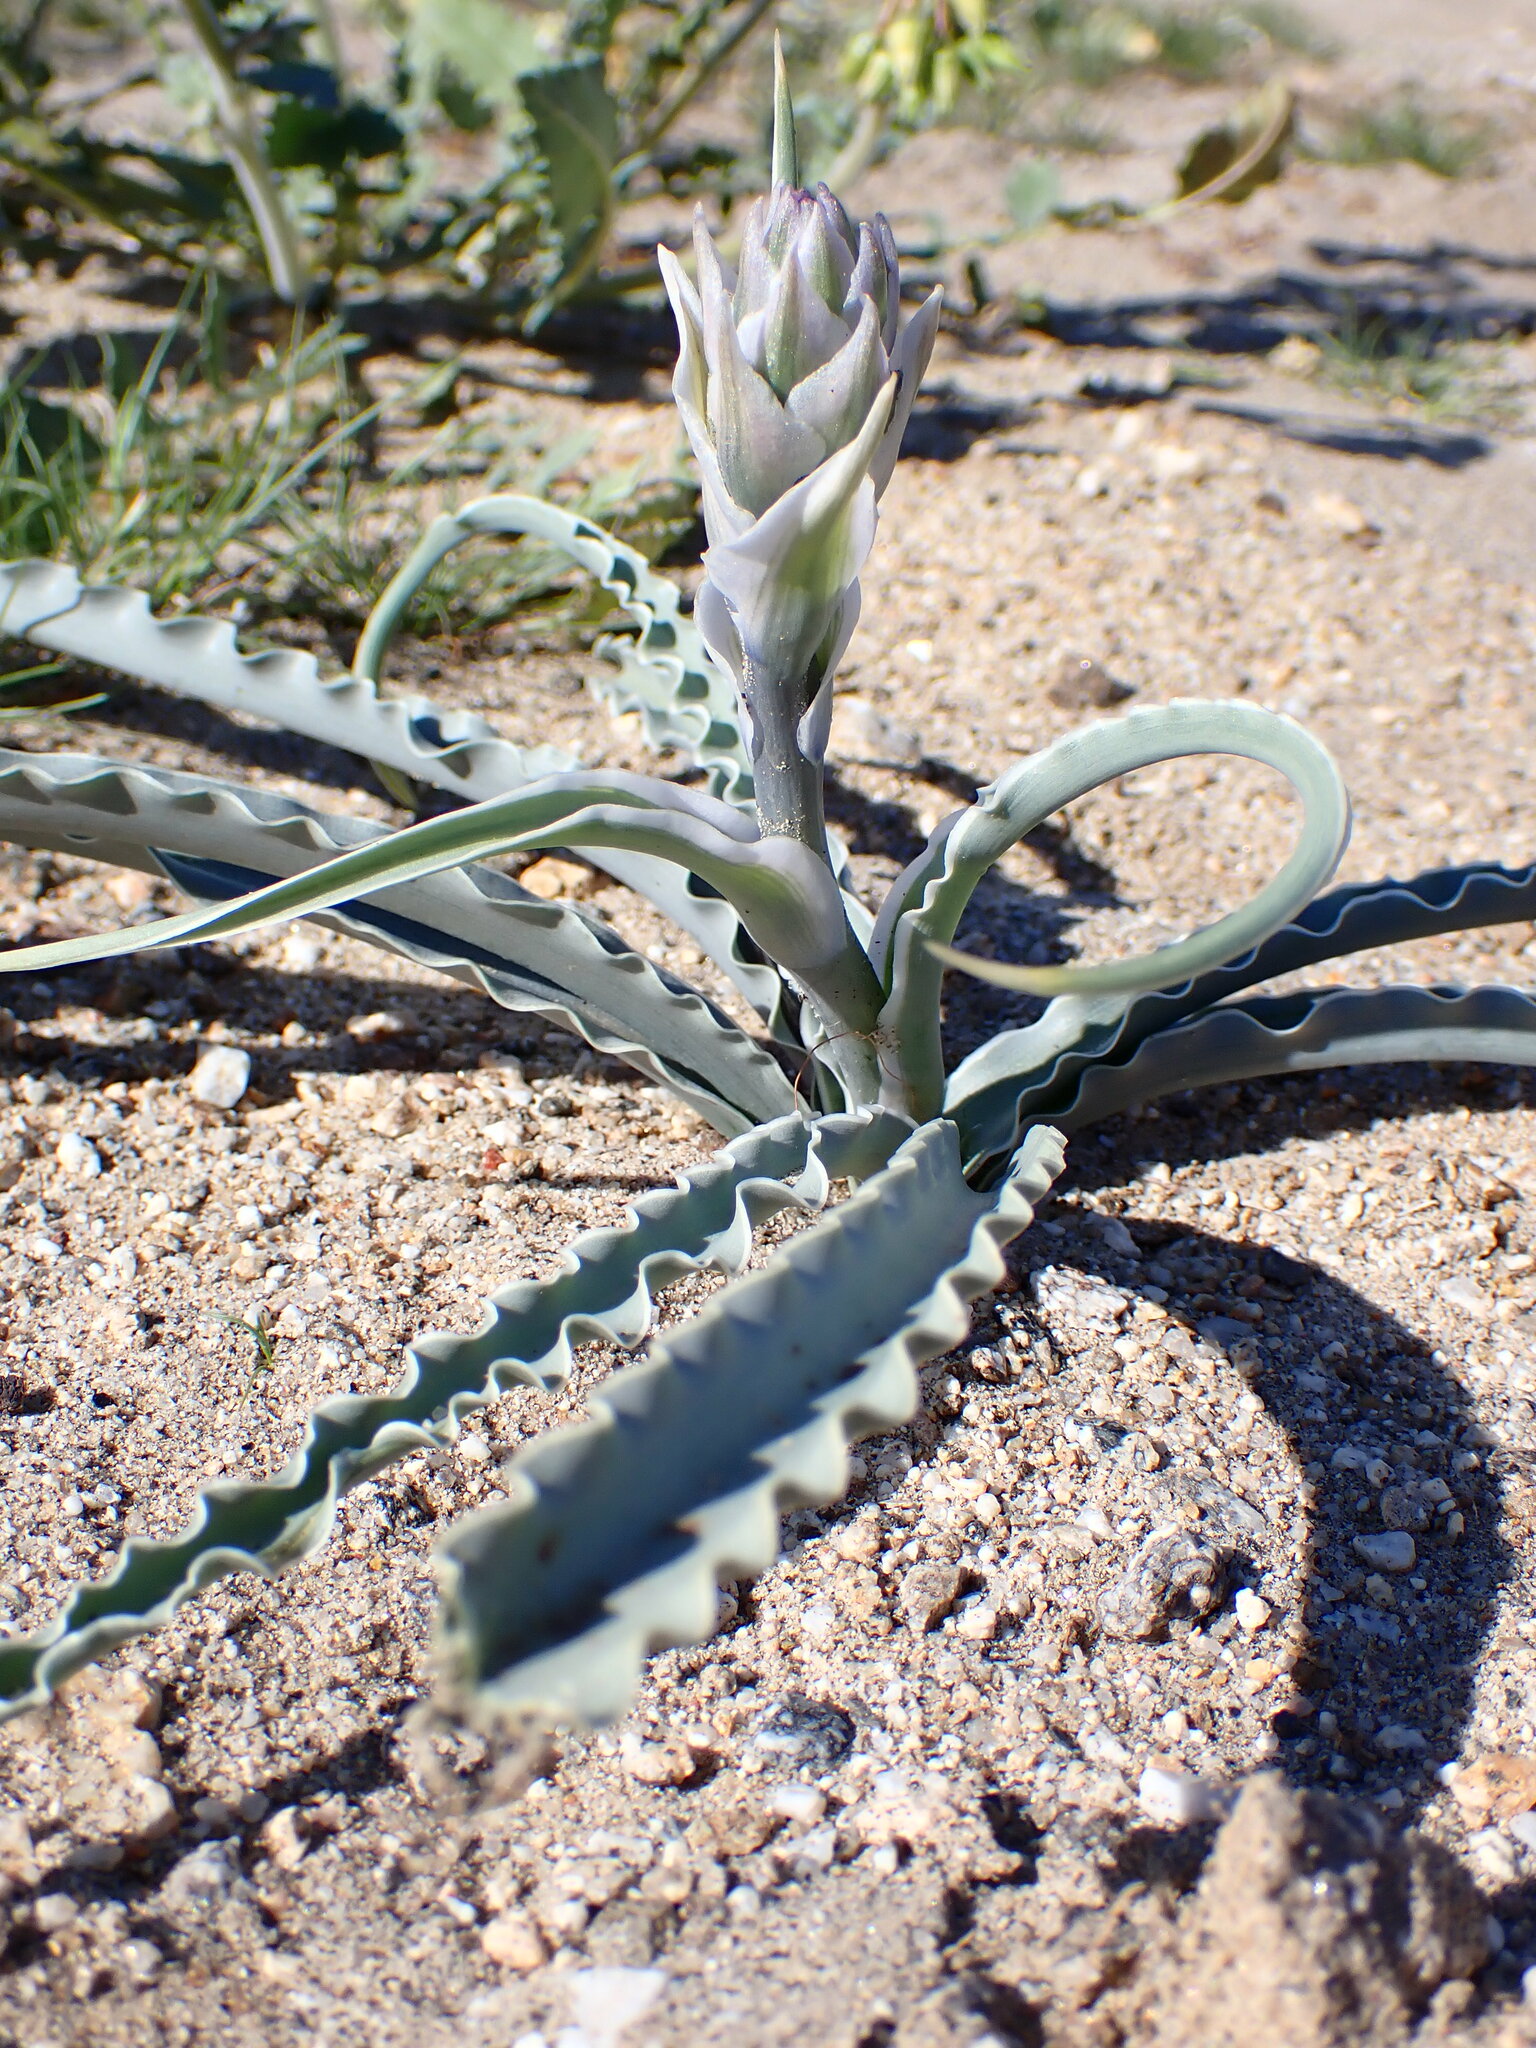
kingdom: Plantae
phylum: Tracheophyta
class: Liliopsida
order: Asparagales
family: Asparagaceae
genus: Hesperocallis
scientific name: Hesperocallis undulata
